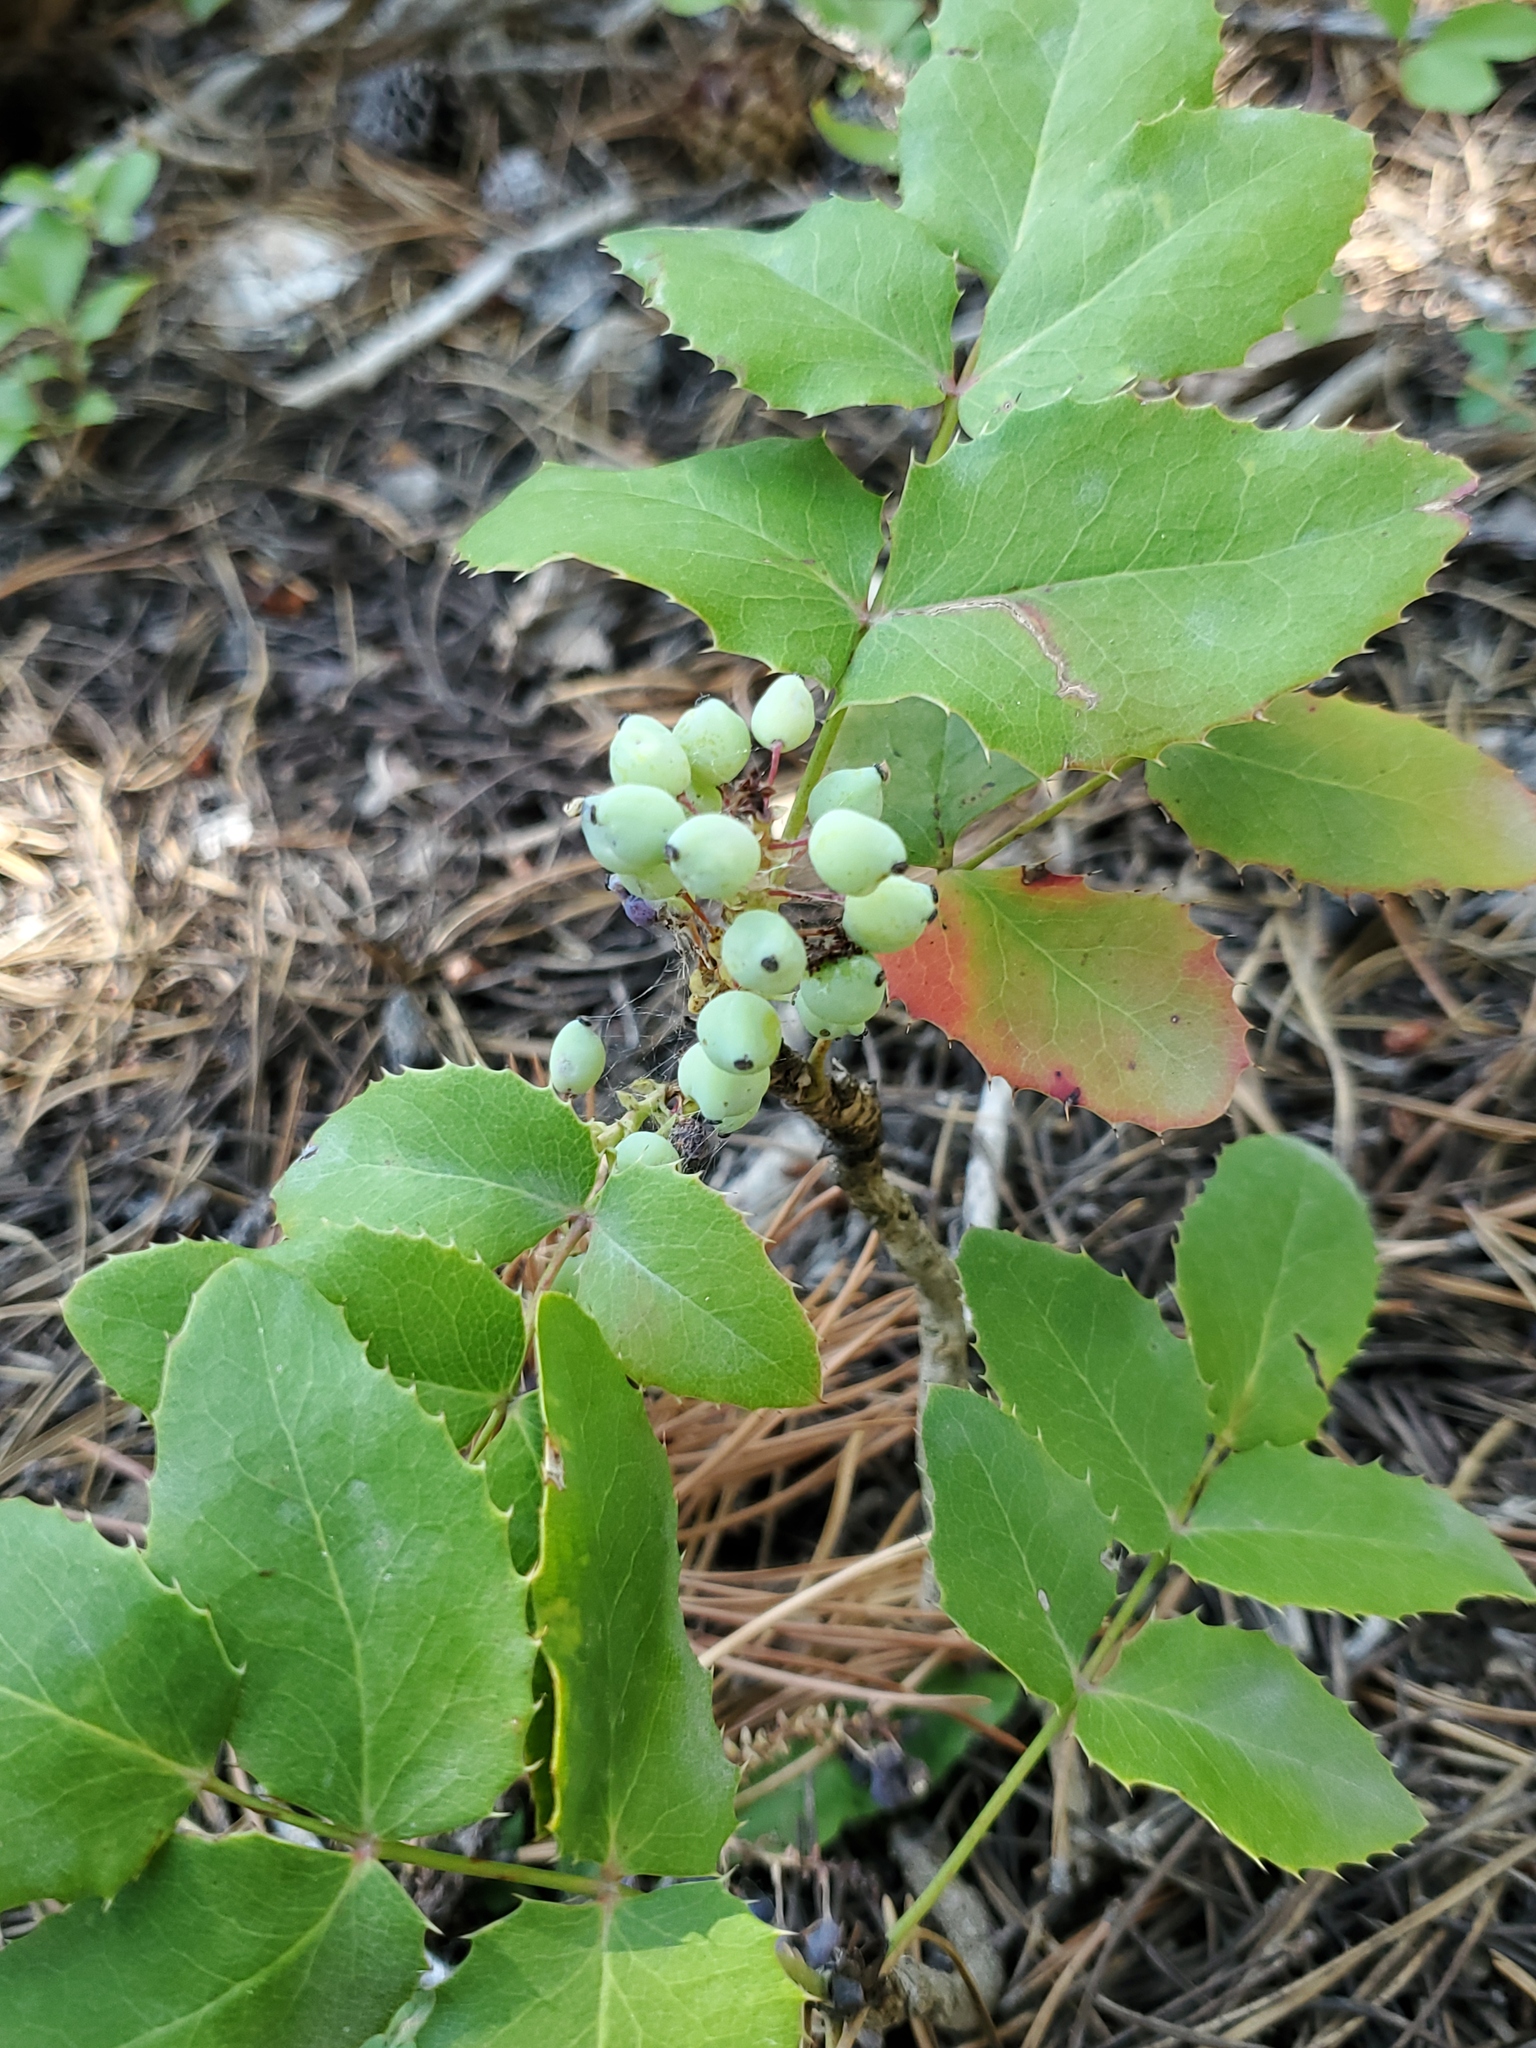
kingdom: Plantae
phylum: Tracheophyta
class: Magnoliopsida
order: Ranunculales
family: Berberidaceae
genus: Mahonia
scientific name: Mahonia repens
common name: Creeping oregon-grape
